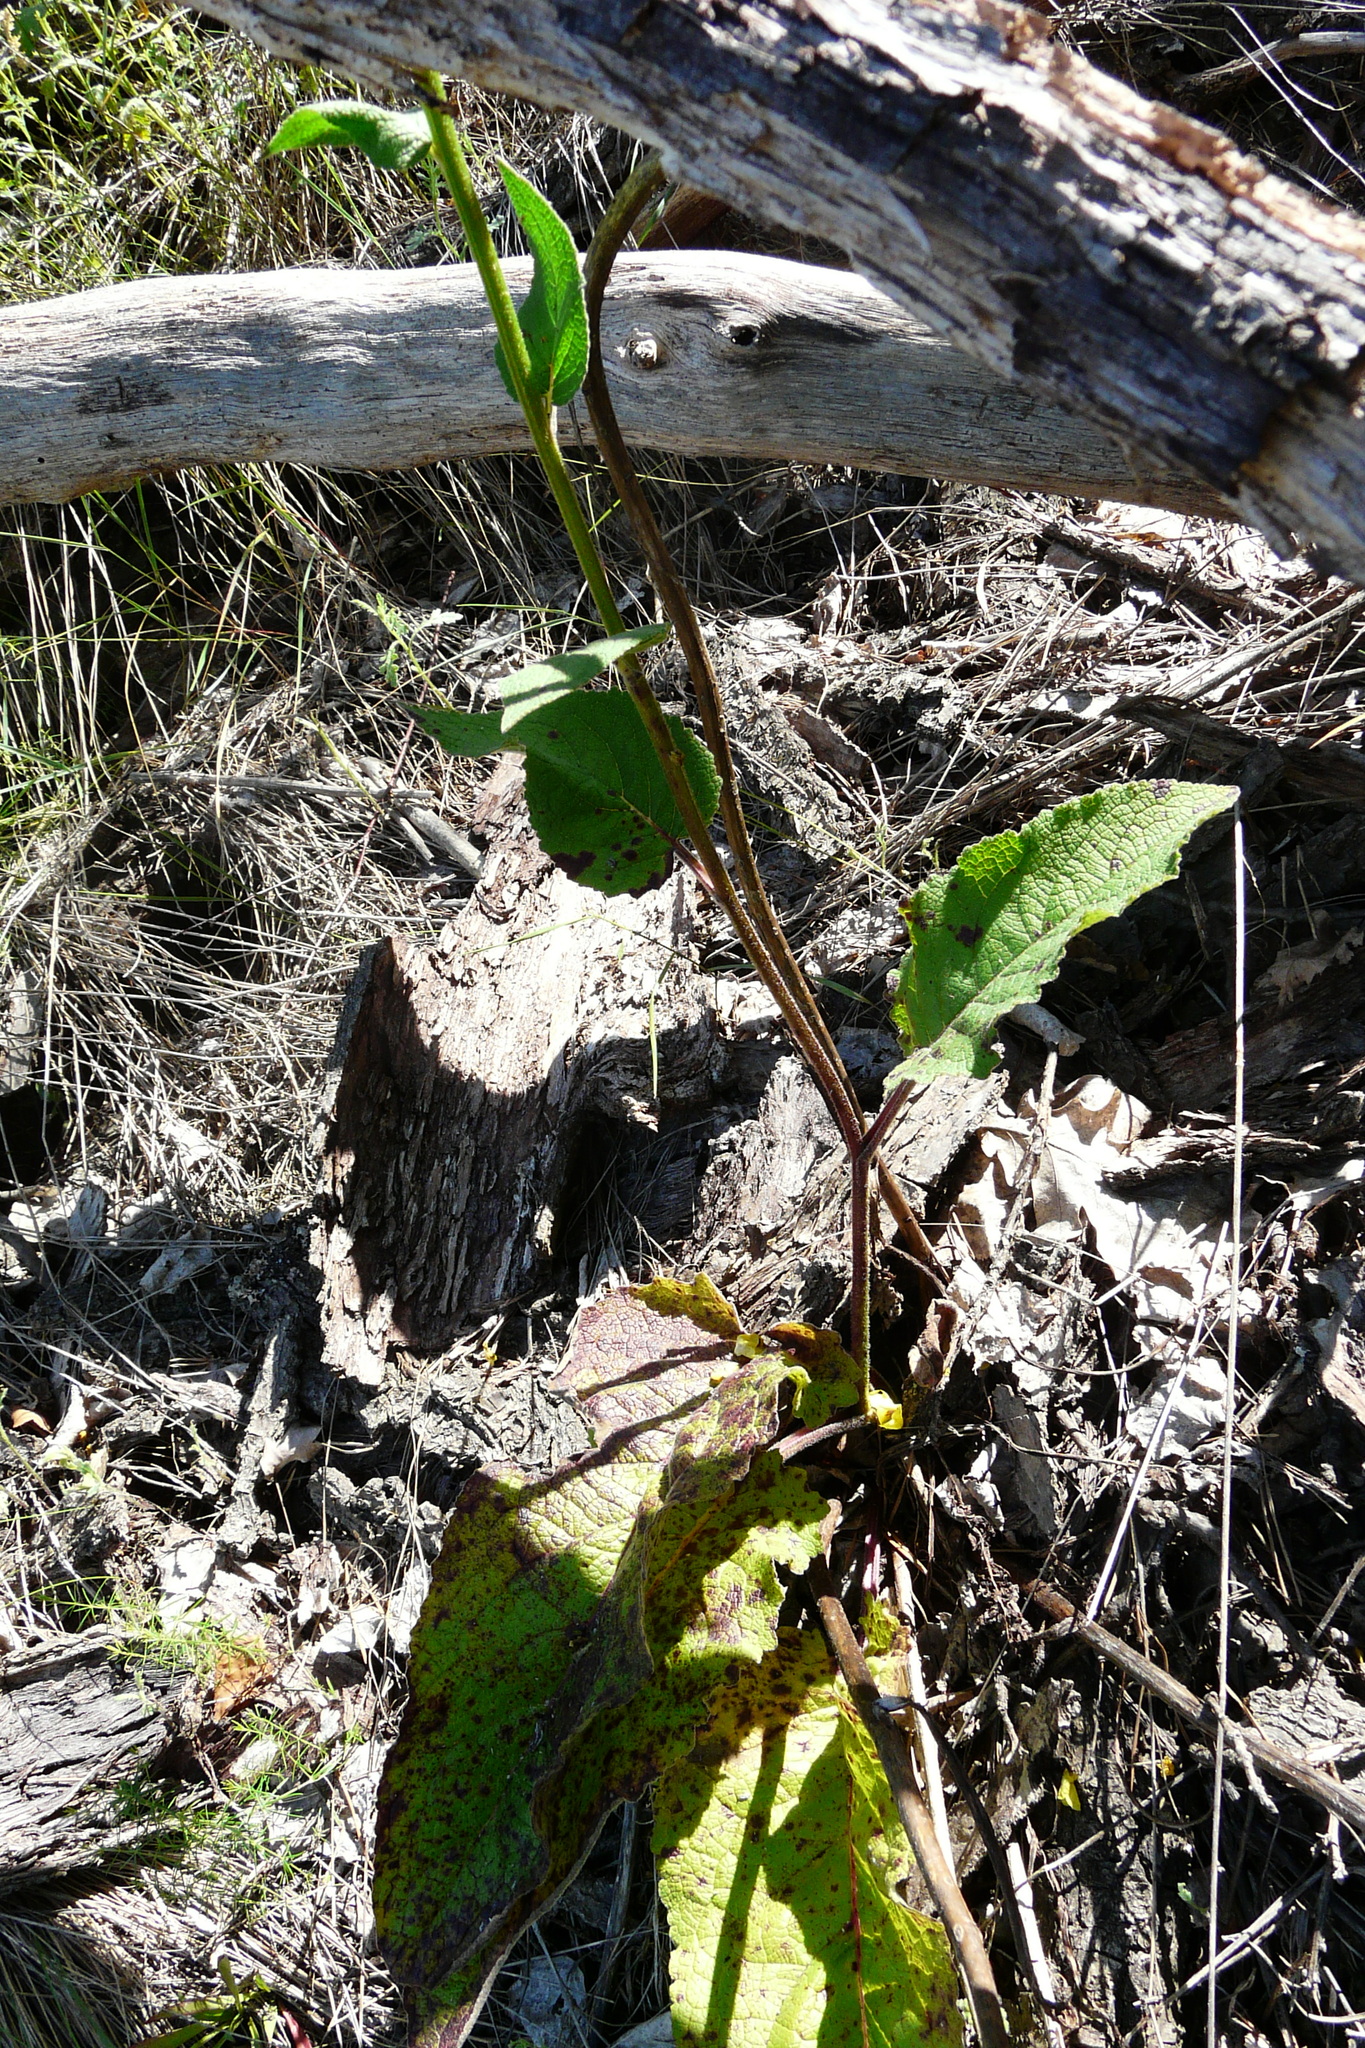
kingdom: Plantae
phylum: Tracheophyta
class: Magnoliopsida
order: Lamiales
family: Scrophulariaceae
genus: Verbascum
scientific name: Verbascum nigrum
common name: Dark mullein
